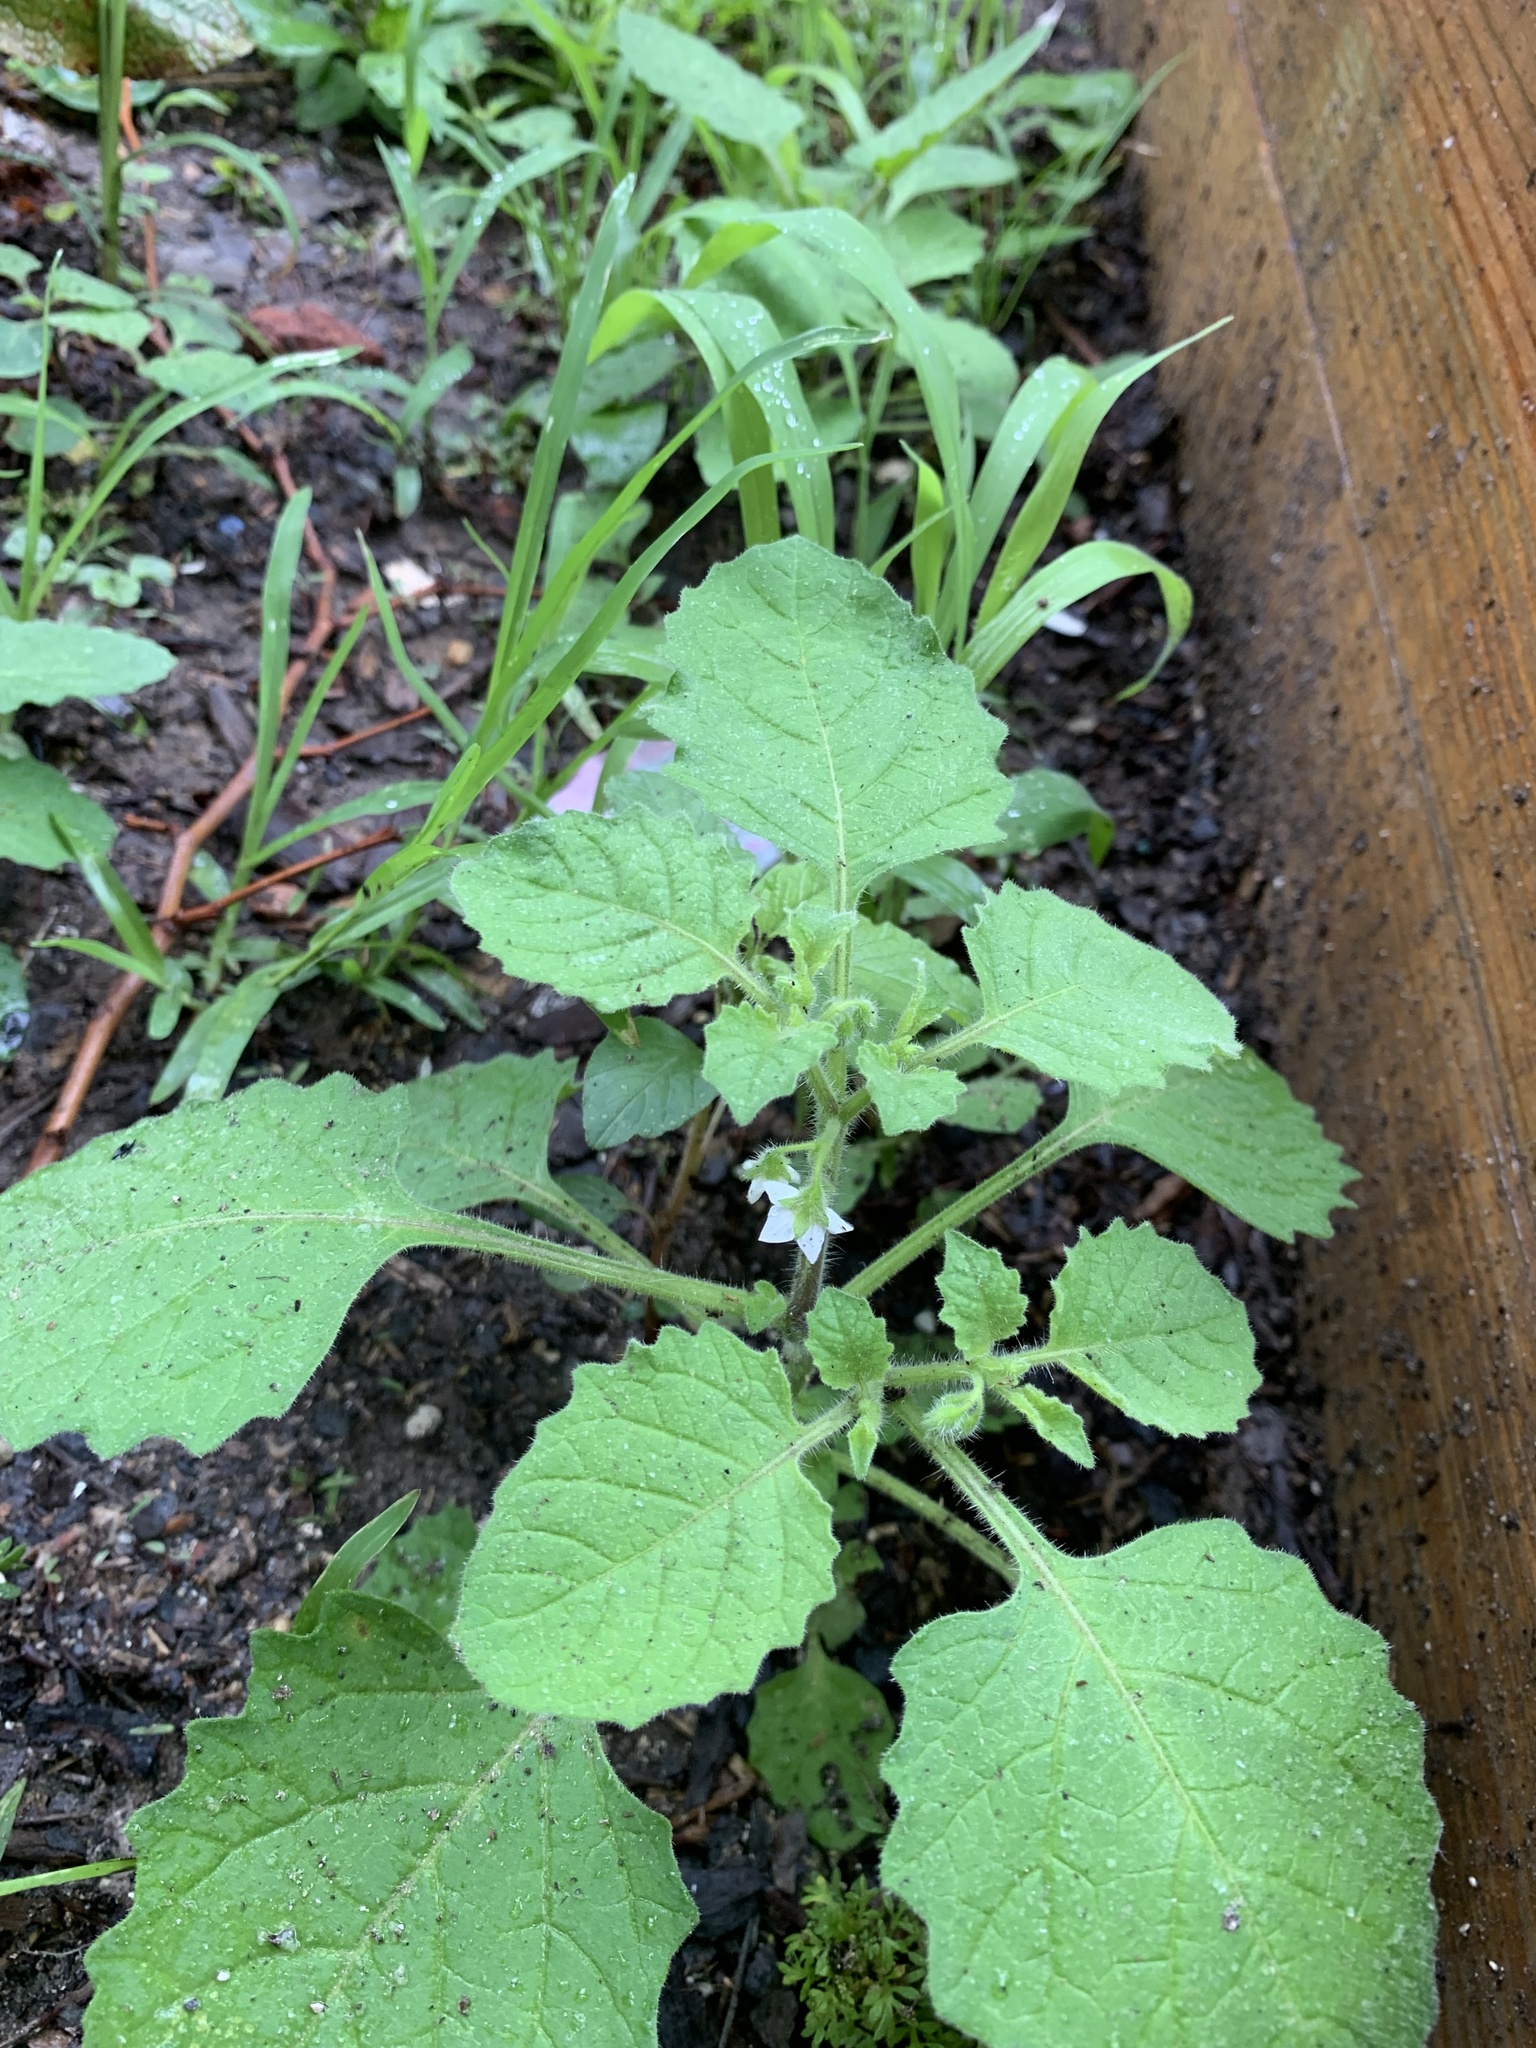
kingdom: Plantae
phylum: Tracheophyta
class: Magnoliopsida
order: Solanales
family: Solanaceae
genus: Solanum
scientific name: Solanum sarrachoides
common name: Leafy-fruited nightshade
